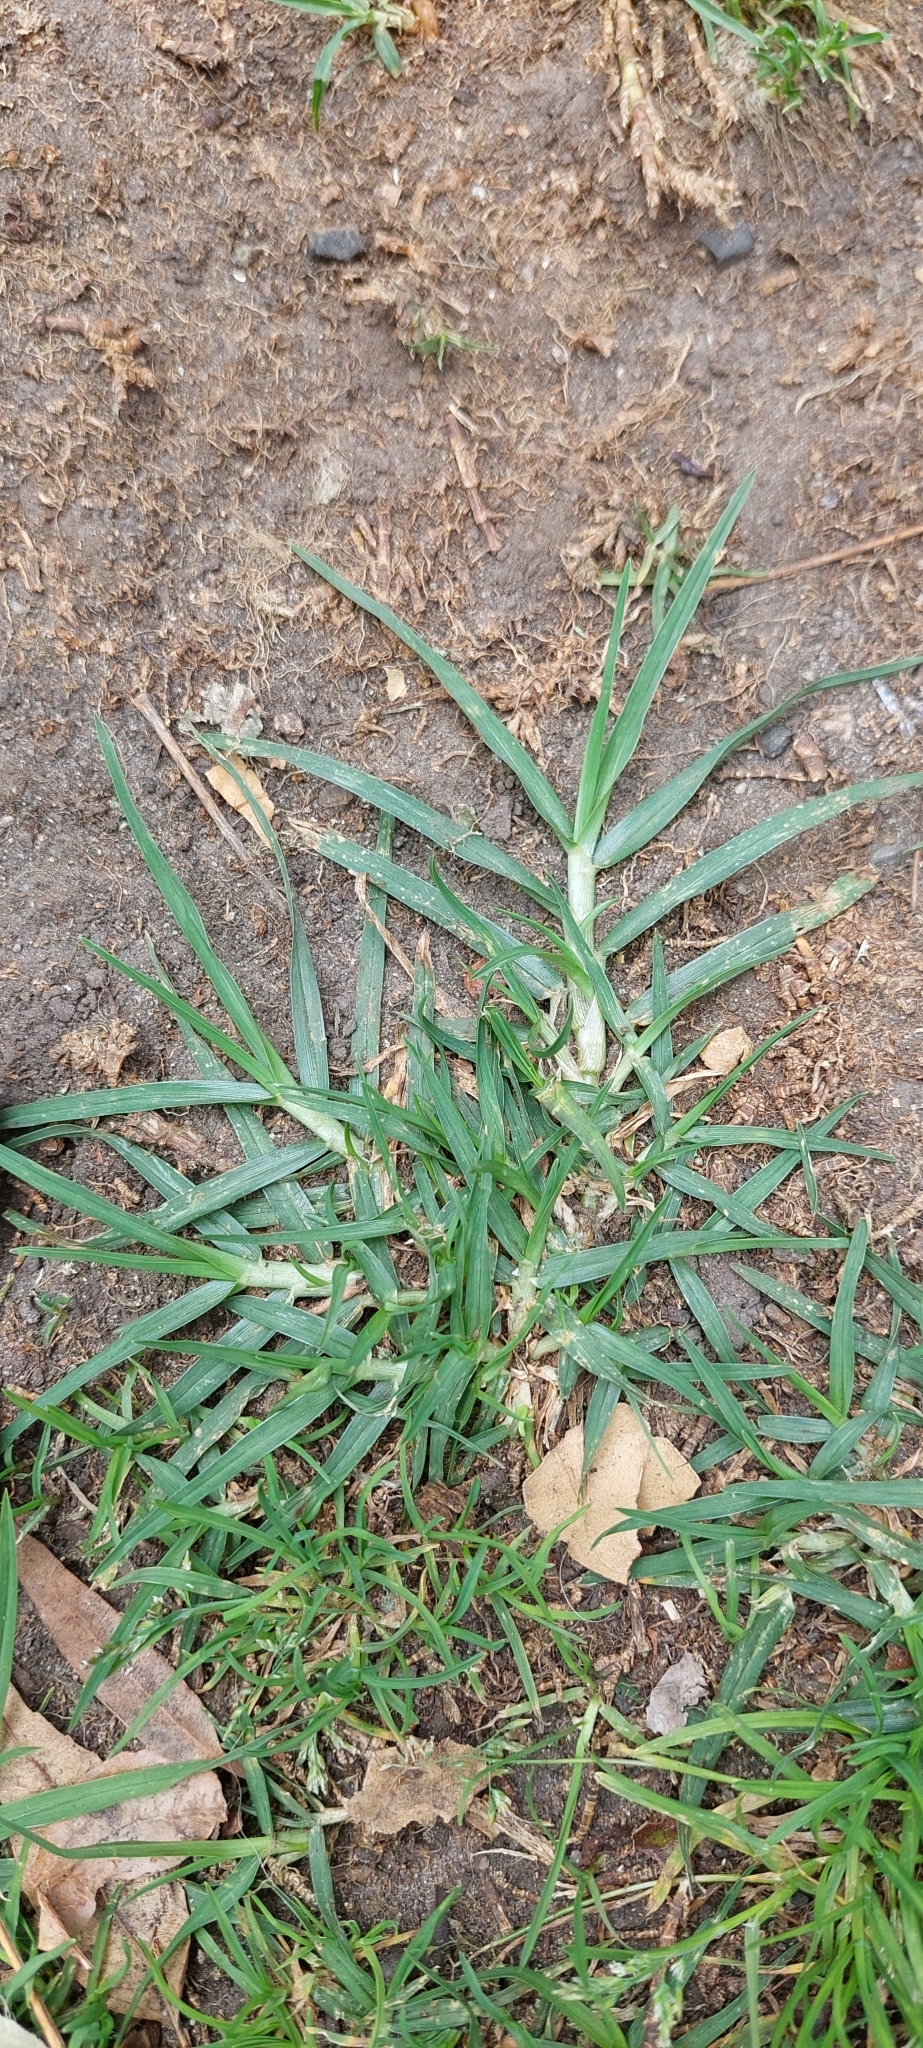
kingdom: Plantae
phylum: Tracheophyta
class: Liliopsida
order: Poales
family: Poaceae
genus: Cenchrus
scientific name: Cenchrus clandestinus
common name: Kikuyugrass
